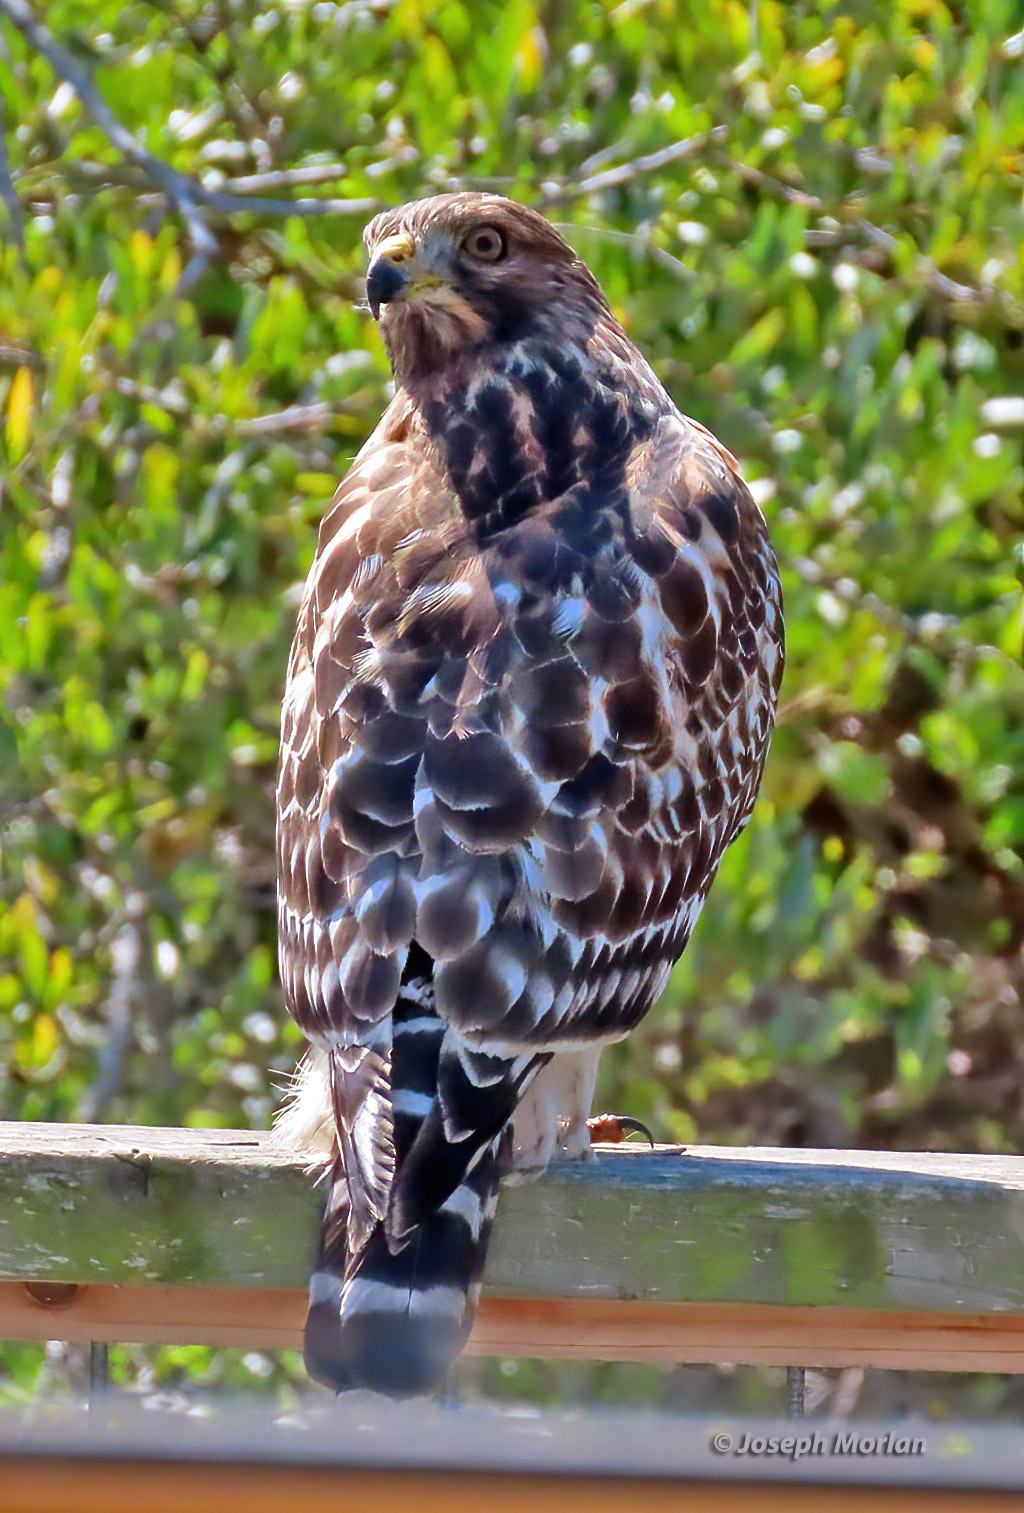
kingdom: Animalia
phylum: Chordata
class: Aves
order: Accipitriformes
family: Accipitridae
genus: Buteo
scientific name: Buteo lineatus
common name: Red-shouldered hawk
